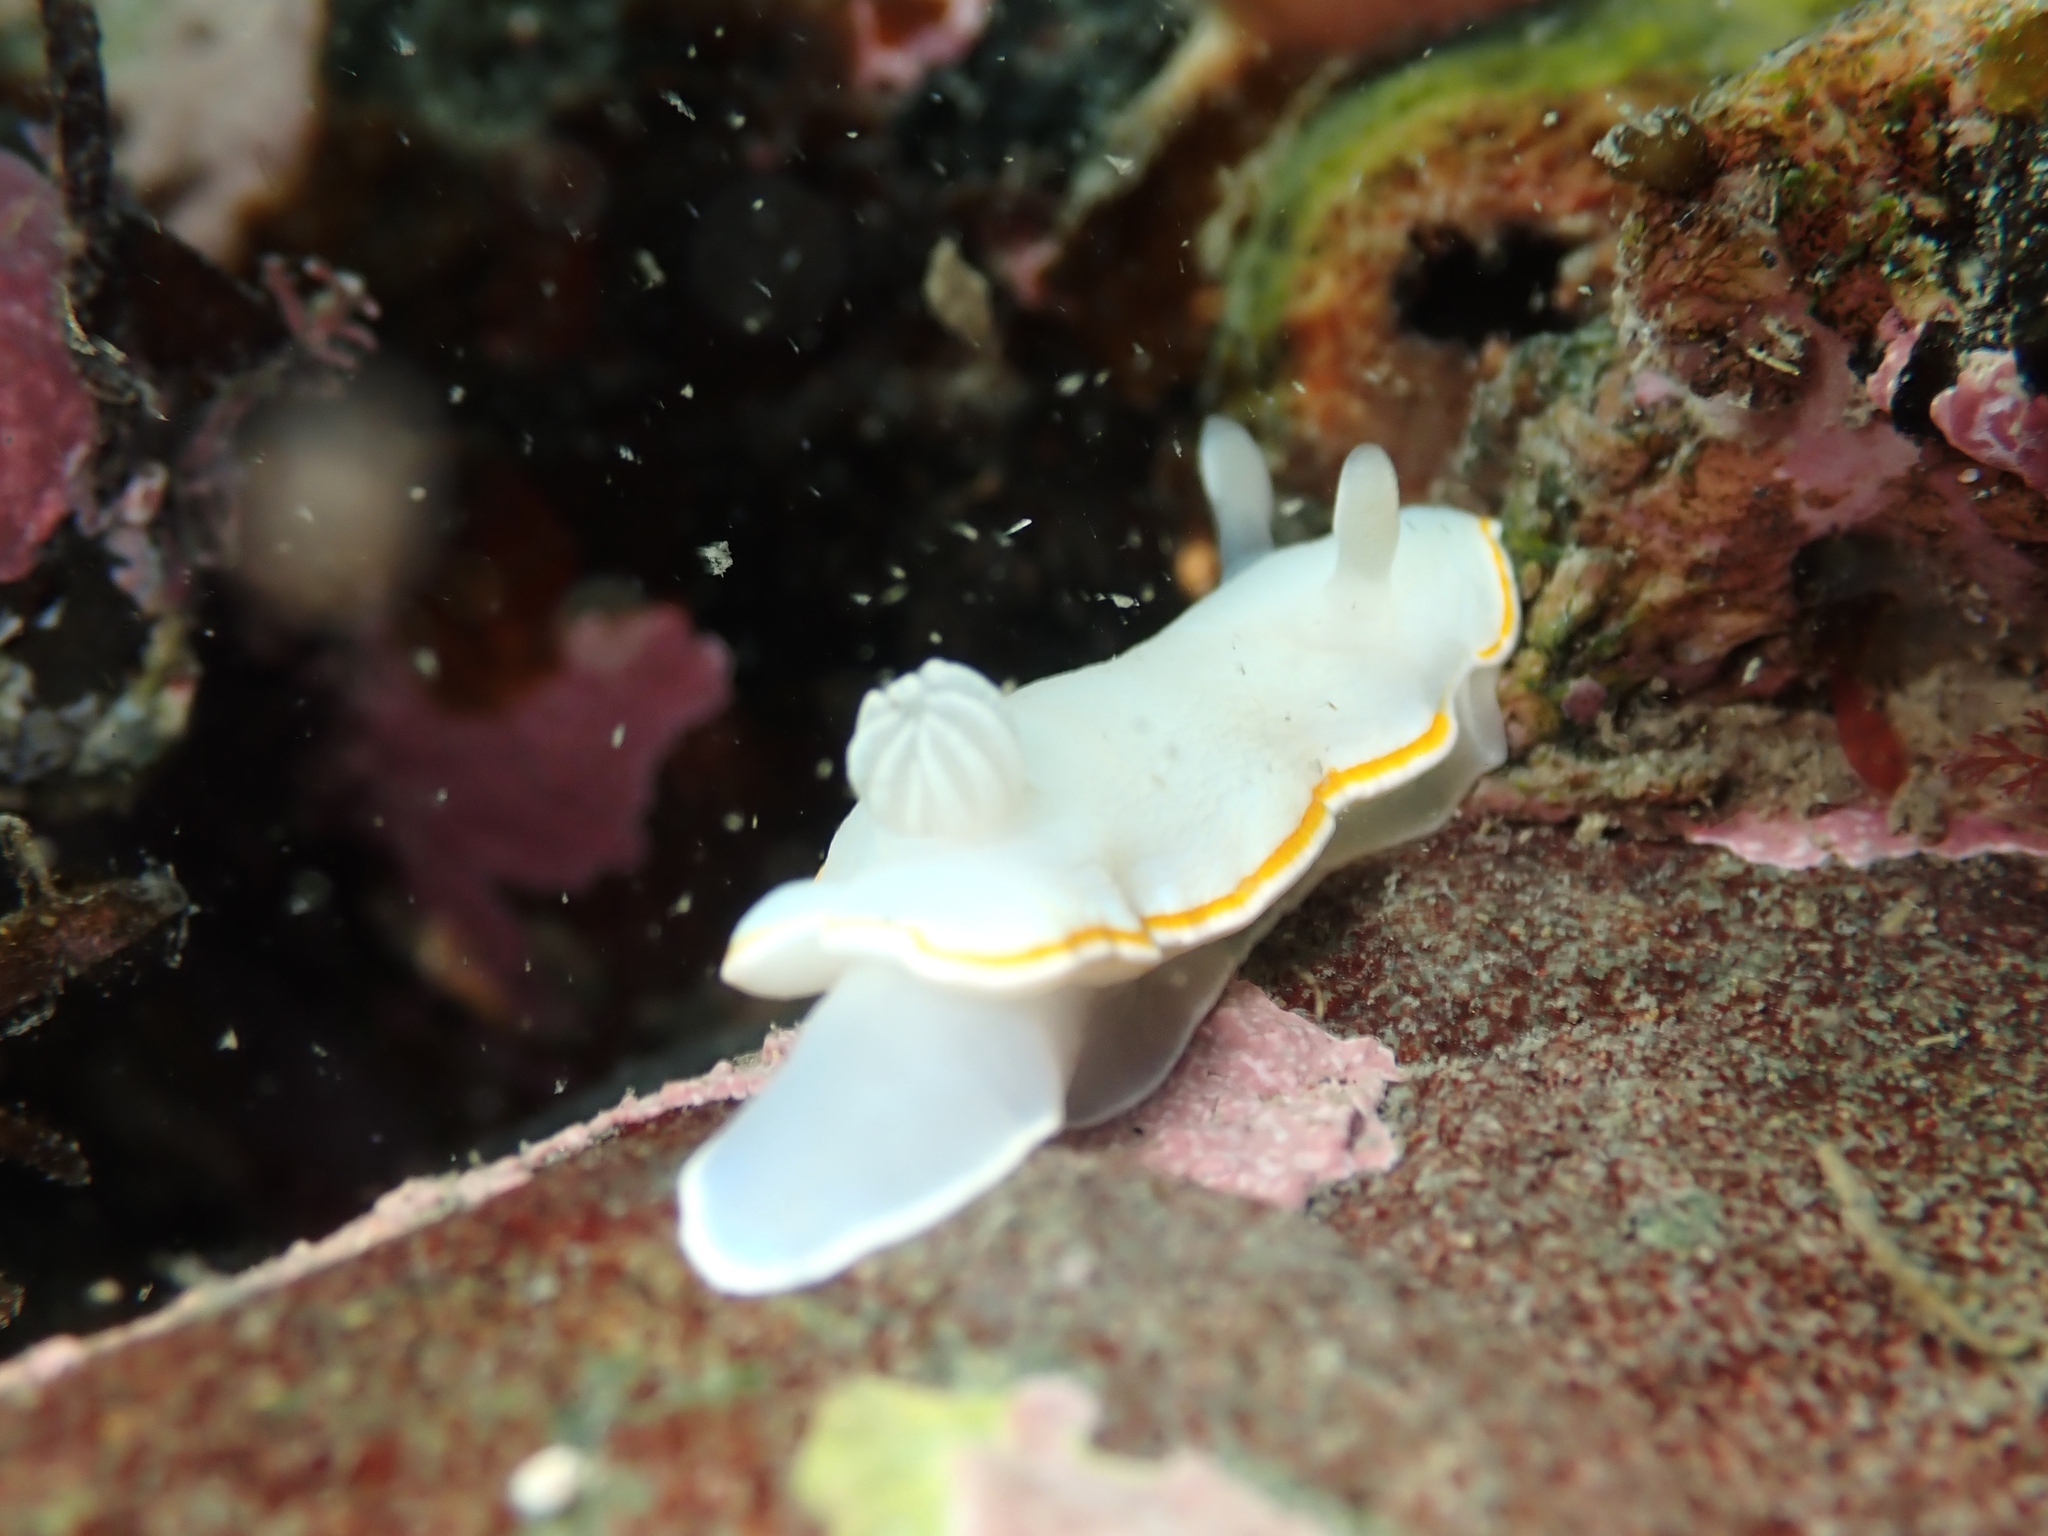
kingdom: Animalia
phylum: Mollusca
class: Gastropoda
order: Nudibranchia
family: Chromodorididae
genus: Goniobranchus
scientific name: Goniobranchus aureomarginatus
